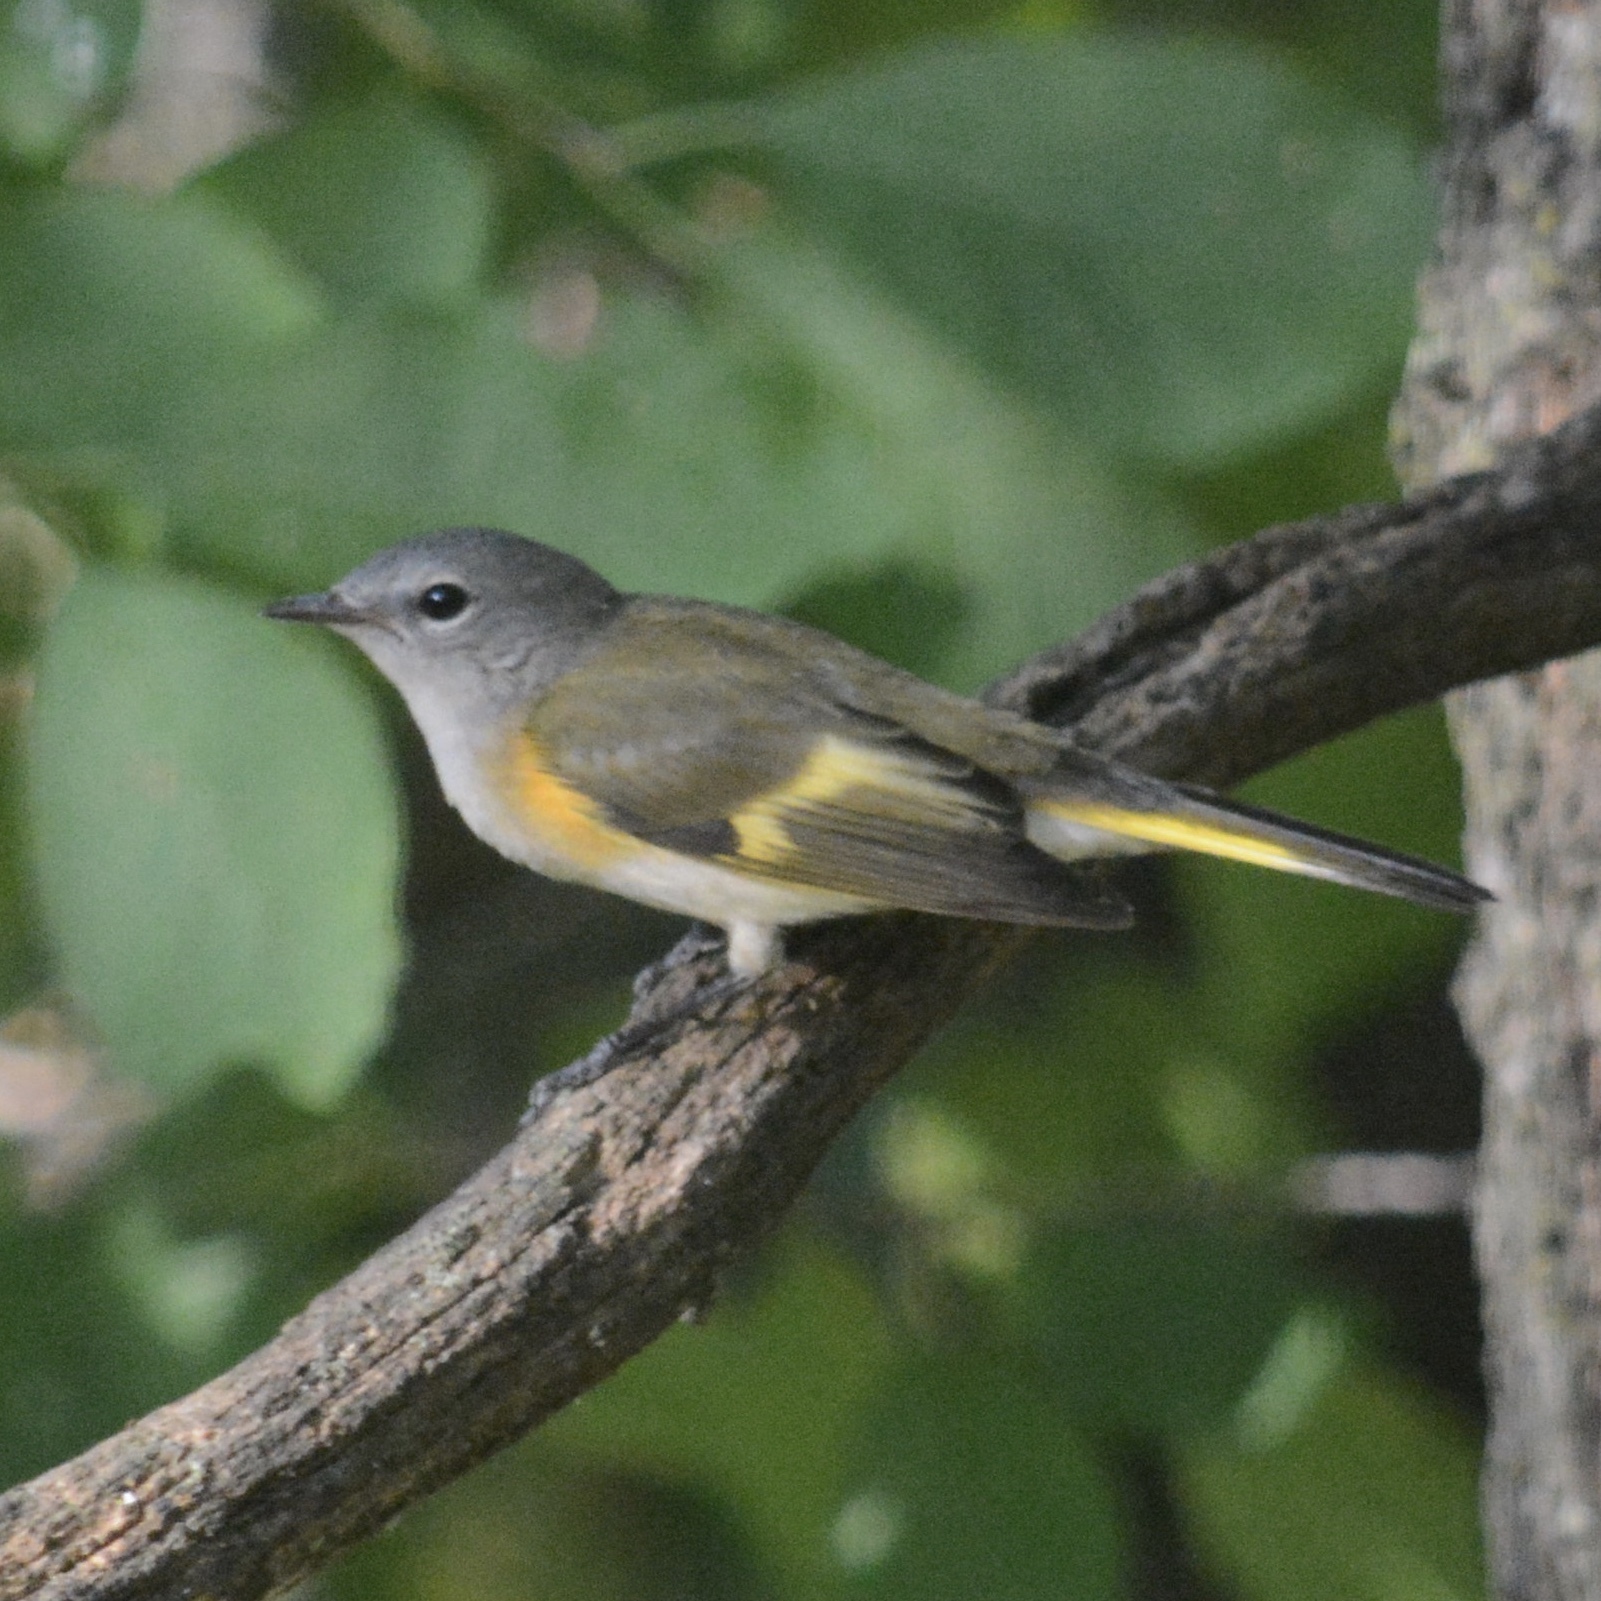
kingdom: Animalia
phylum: Chordata
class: Aves
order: Passeriformes
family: Parulidae
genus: Setophaga
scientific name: Setophaga ruticilla
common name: American redstart
